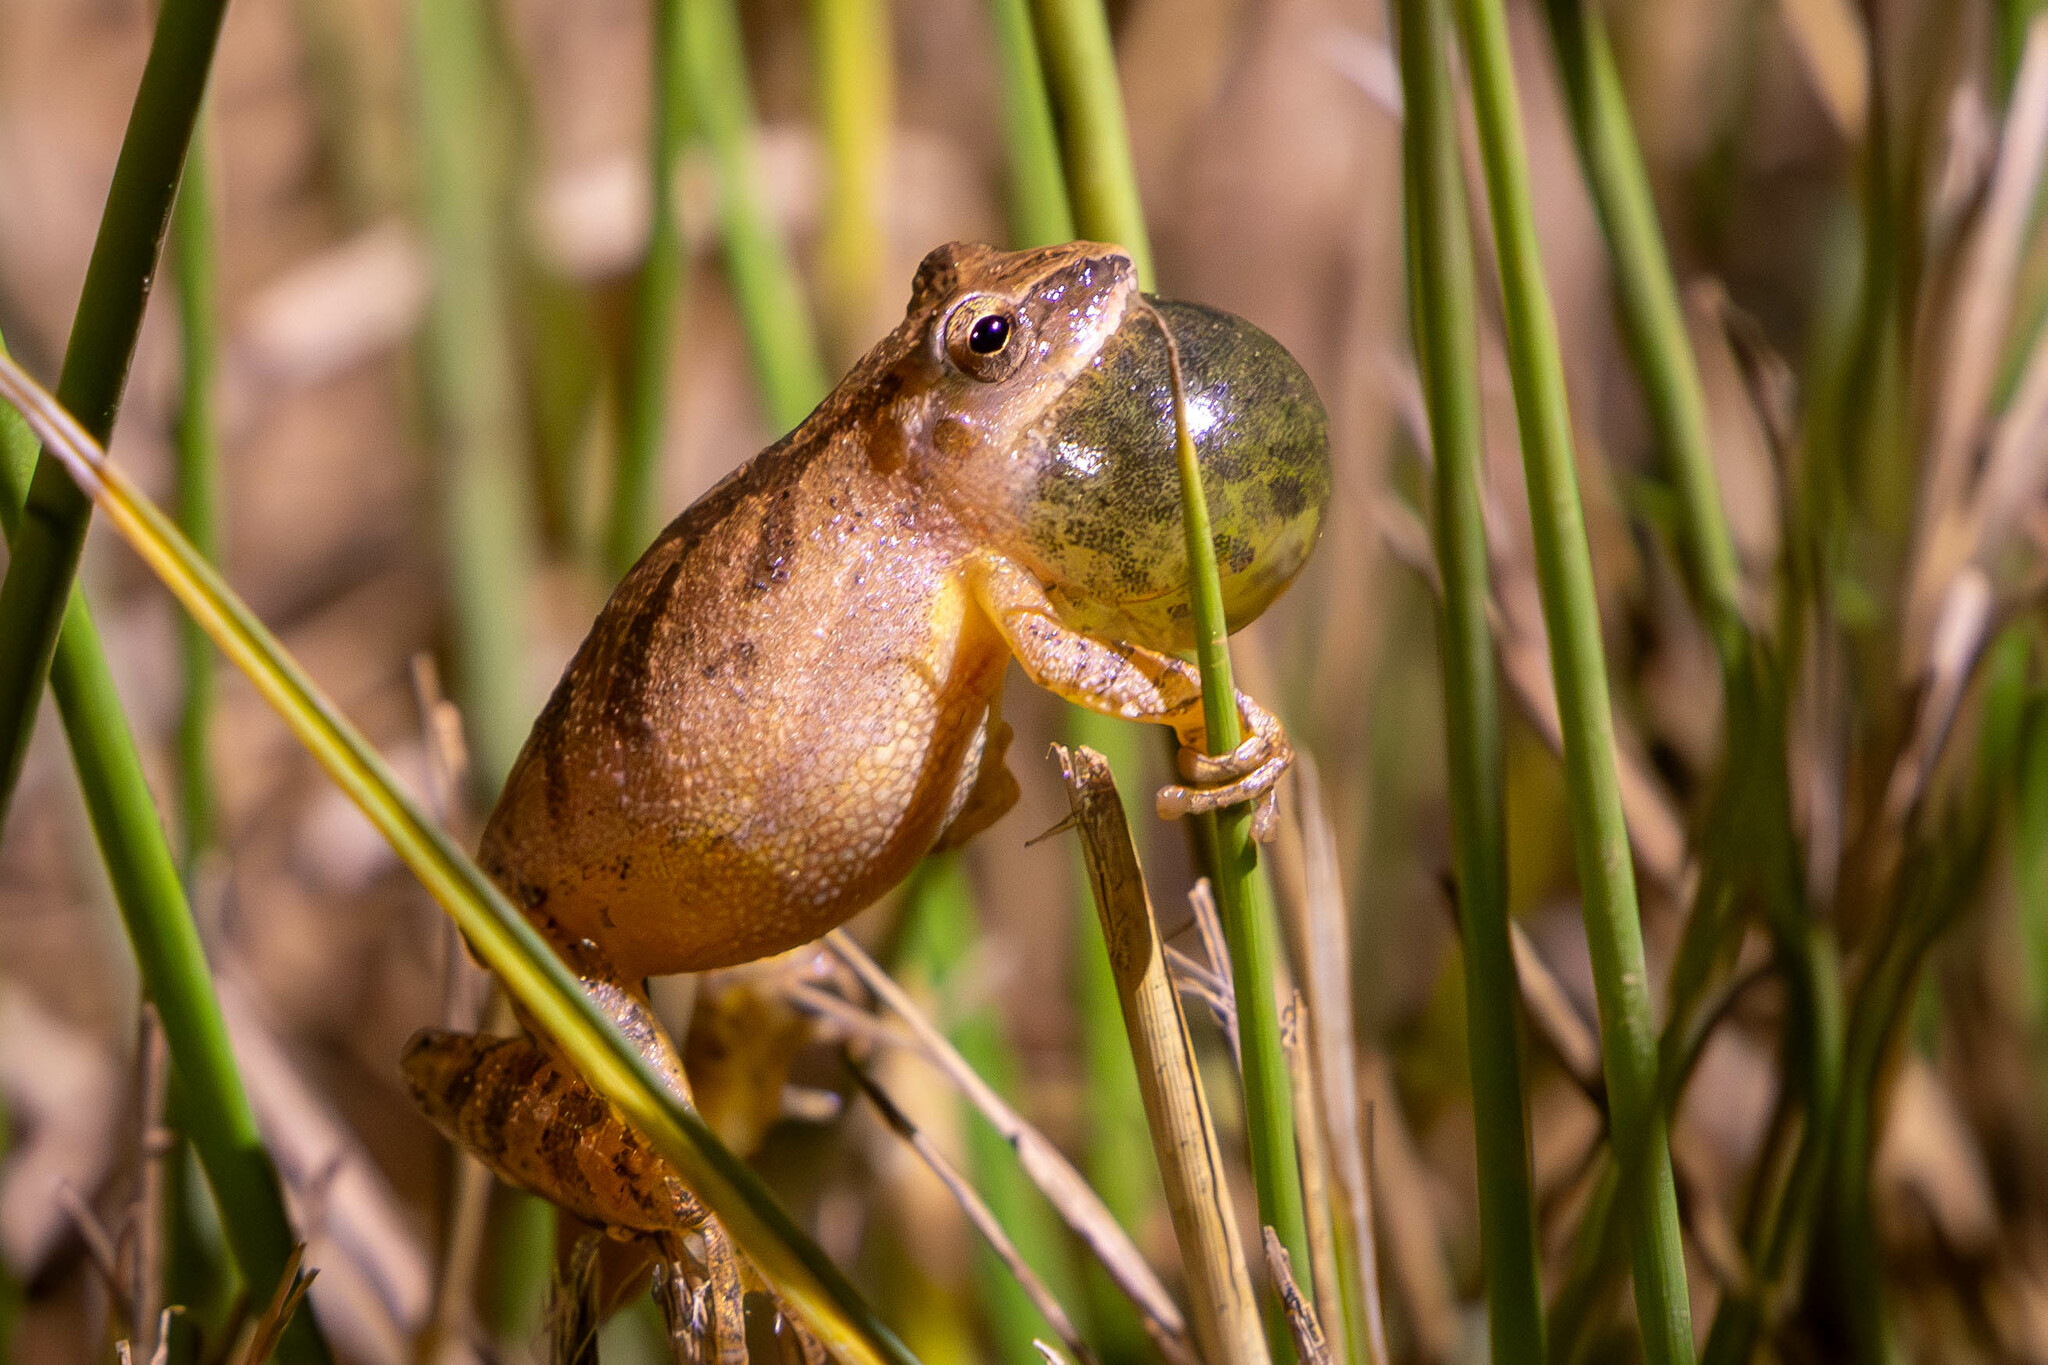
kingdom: Animalia
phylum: Chordata
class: Amphibia
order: Anura
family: Hylidae
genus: Pseudacris
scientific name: Pseudacris crucifer
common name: Spring peeper
